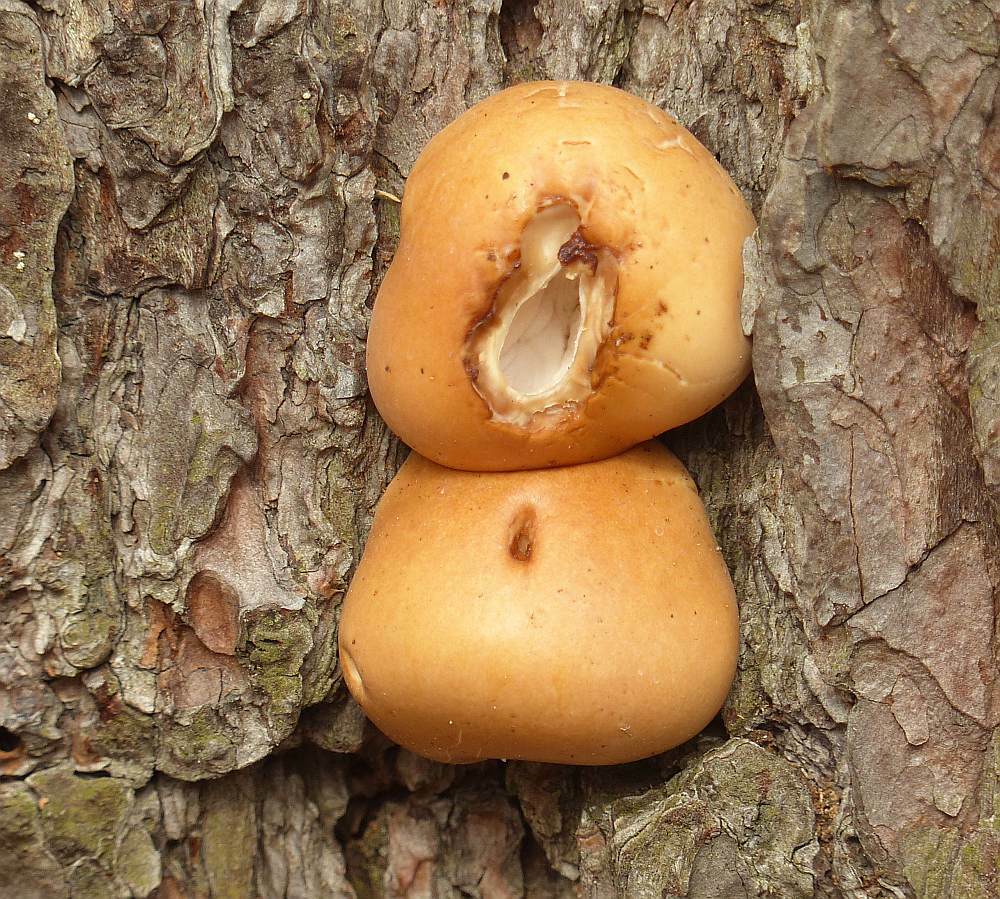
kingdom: Fungi
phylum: Basidiomycota
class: Agaricomycetes
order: Polyporales
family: Polyporaceae
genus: Cryptoporus
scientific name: Cryptoporus volvatus
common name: Veiled polypore
